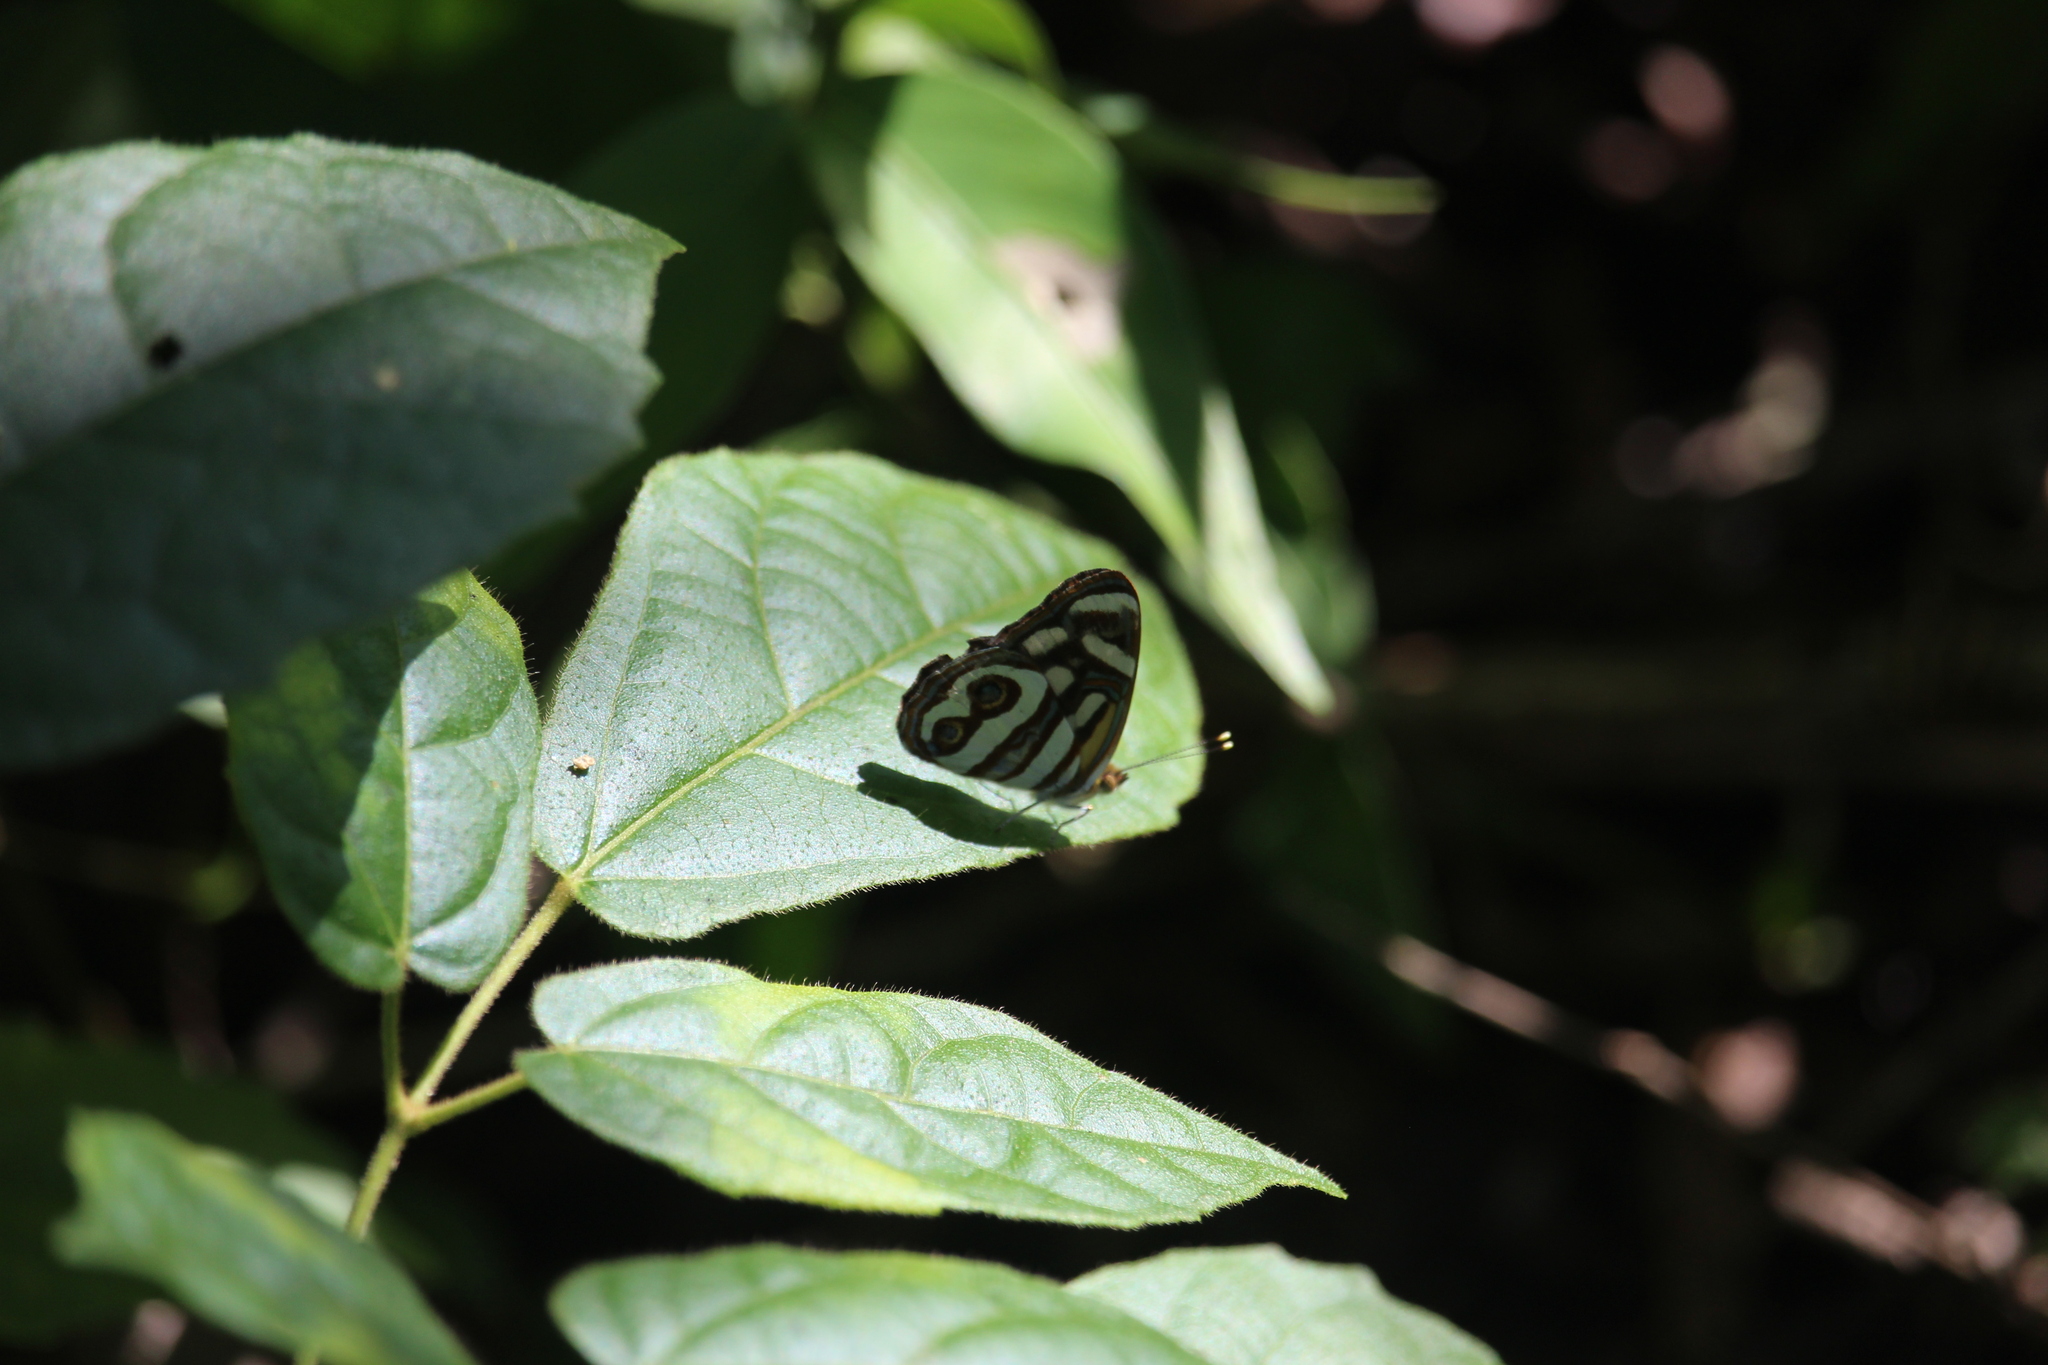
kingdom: Animalia
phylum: Arthropoda
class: Insecta
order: Lepidoptera
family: Nymphalidae
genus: Dynamine
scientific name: Dynamine dyonis
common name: Blue-eyed sailor
